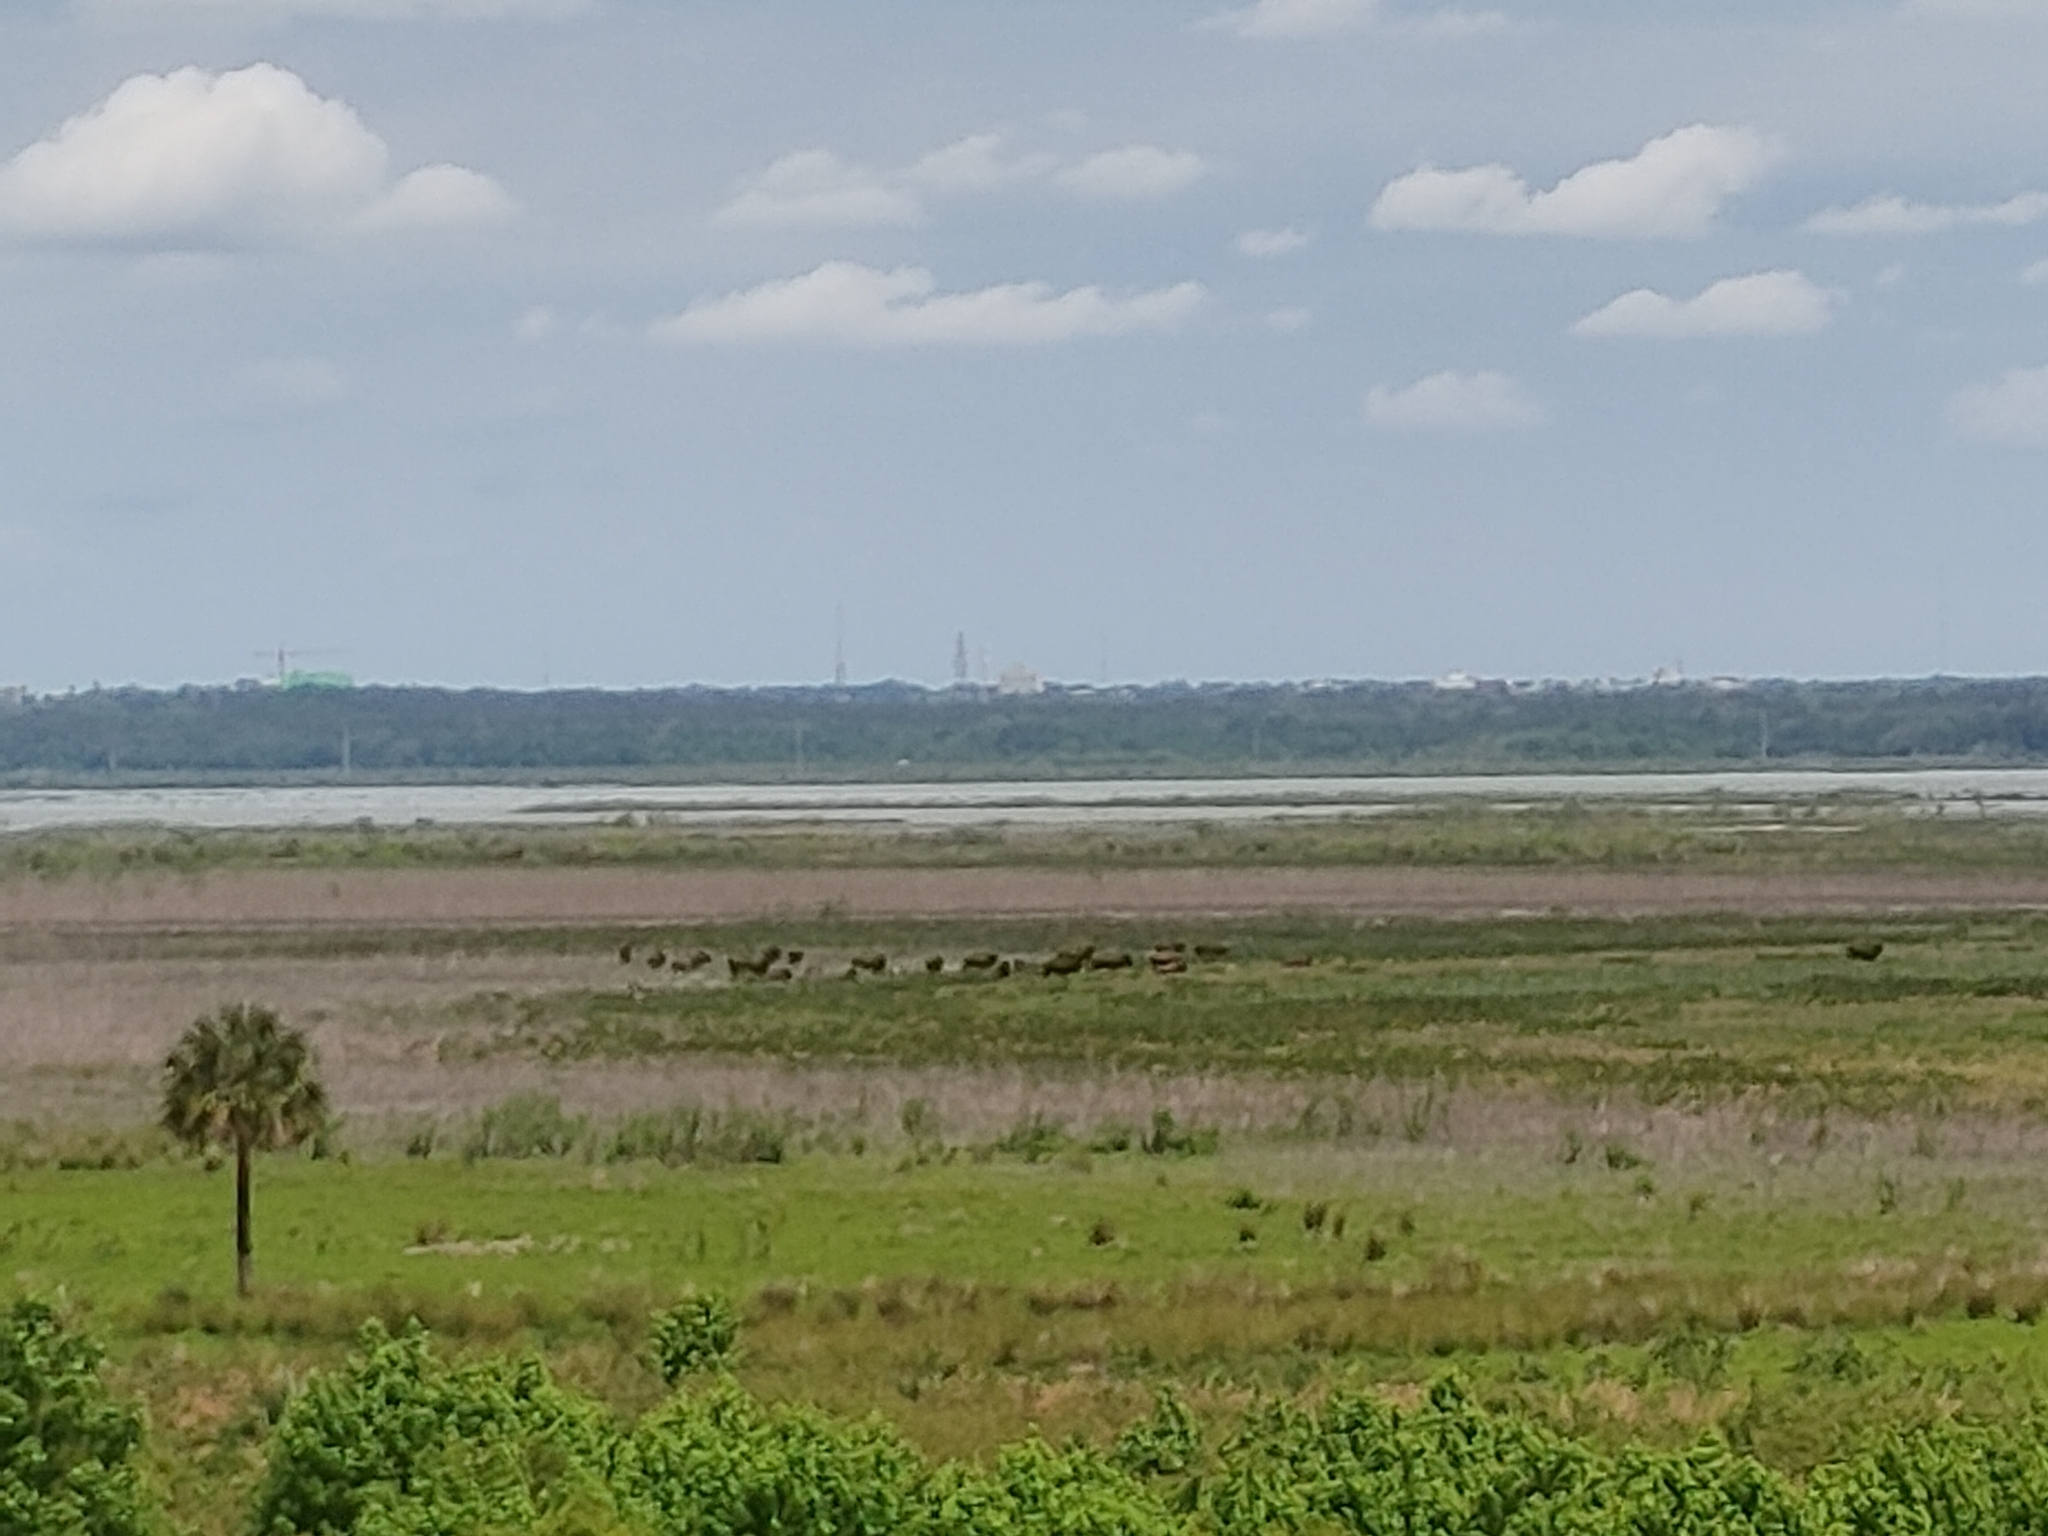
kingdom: Animalia
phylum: Chordata
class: Mammalia
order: Artiodactyla
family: Bovidae
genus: Bison
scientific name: Bison bison
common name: American bison
